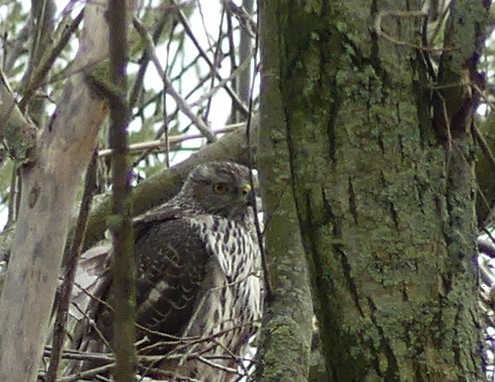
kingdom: Animalia
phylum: Chordata
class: Aves
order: Accipitriformes
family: Accipitridae
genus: Accipiter
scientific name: Accipiter gentilis
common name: Northern goshawk
